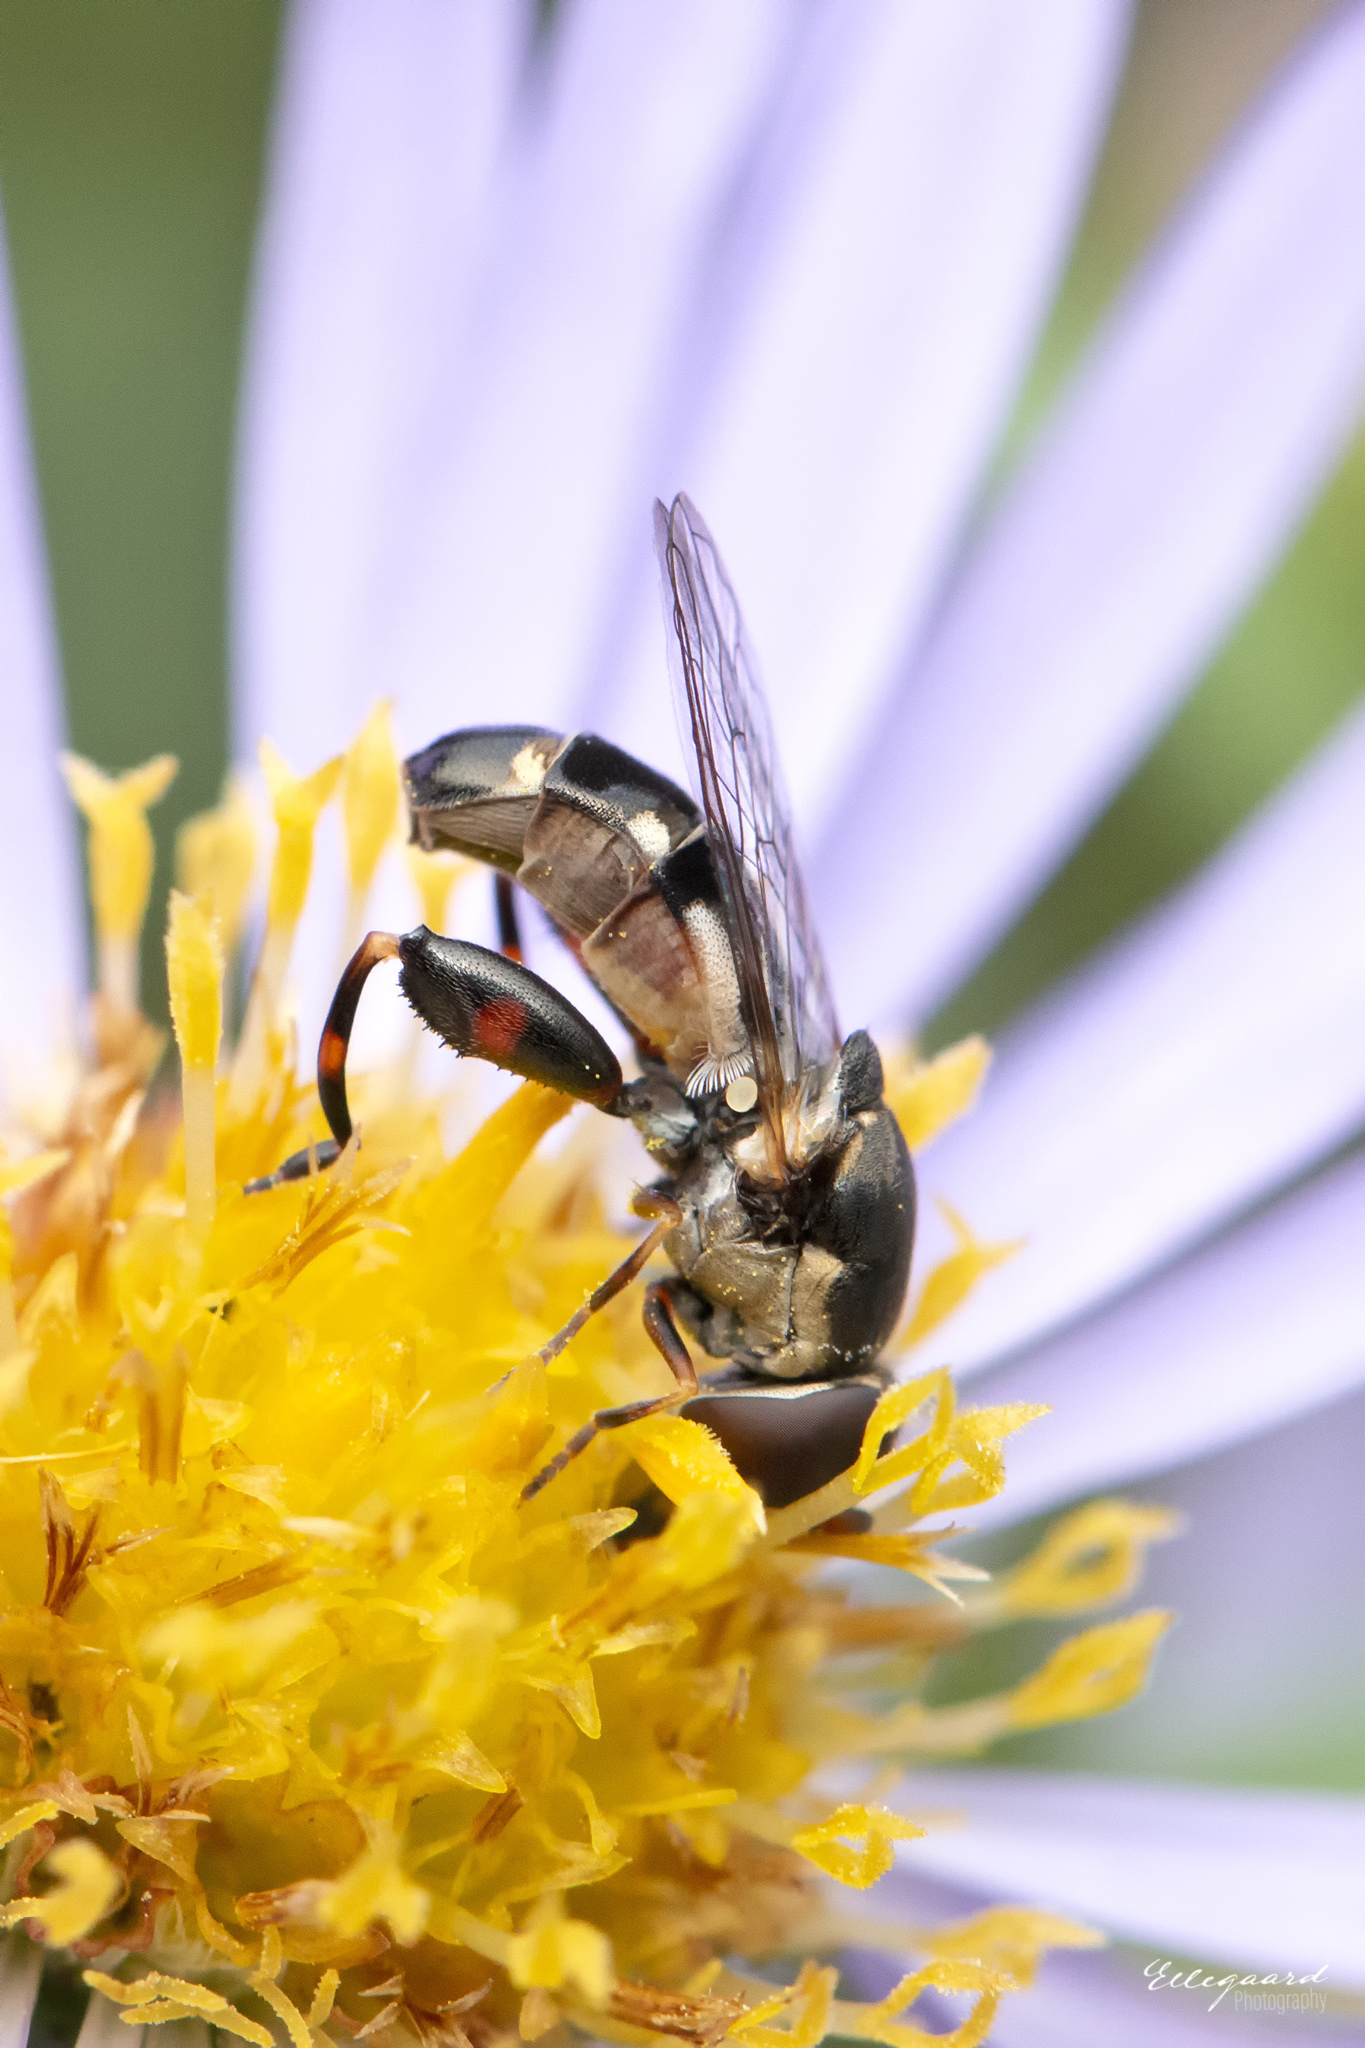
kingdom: Animalia
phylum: Arthropoda
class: Insecta
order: Diptera
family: Syrphidae
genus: Syritta
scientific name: Syritta pipiens
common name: Hover fly
